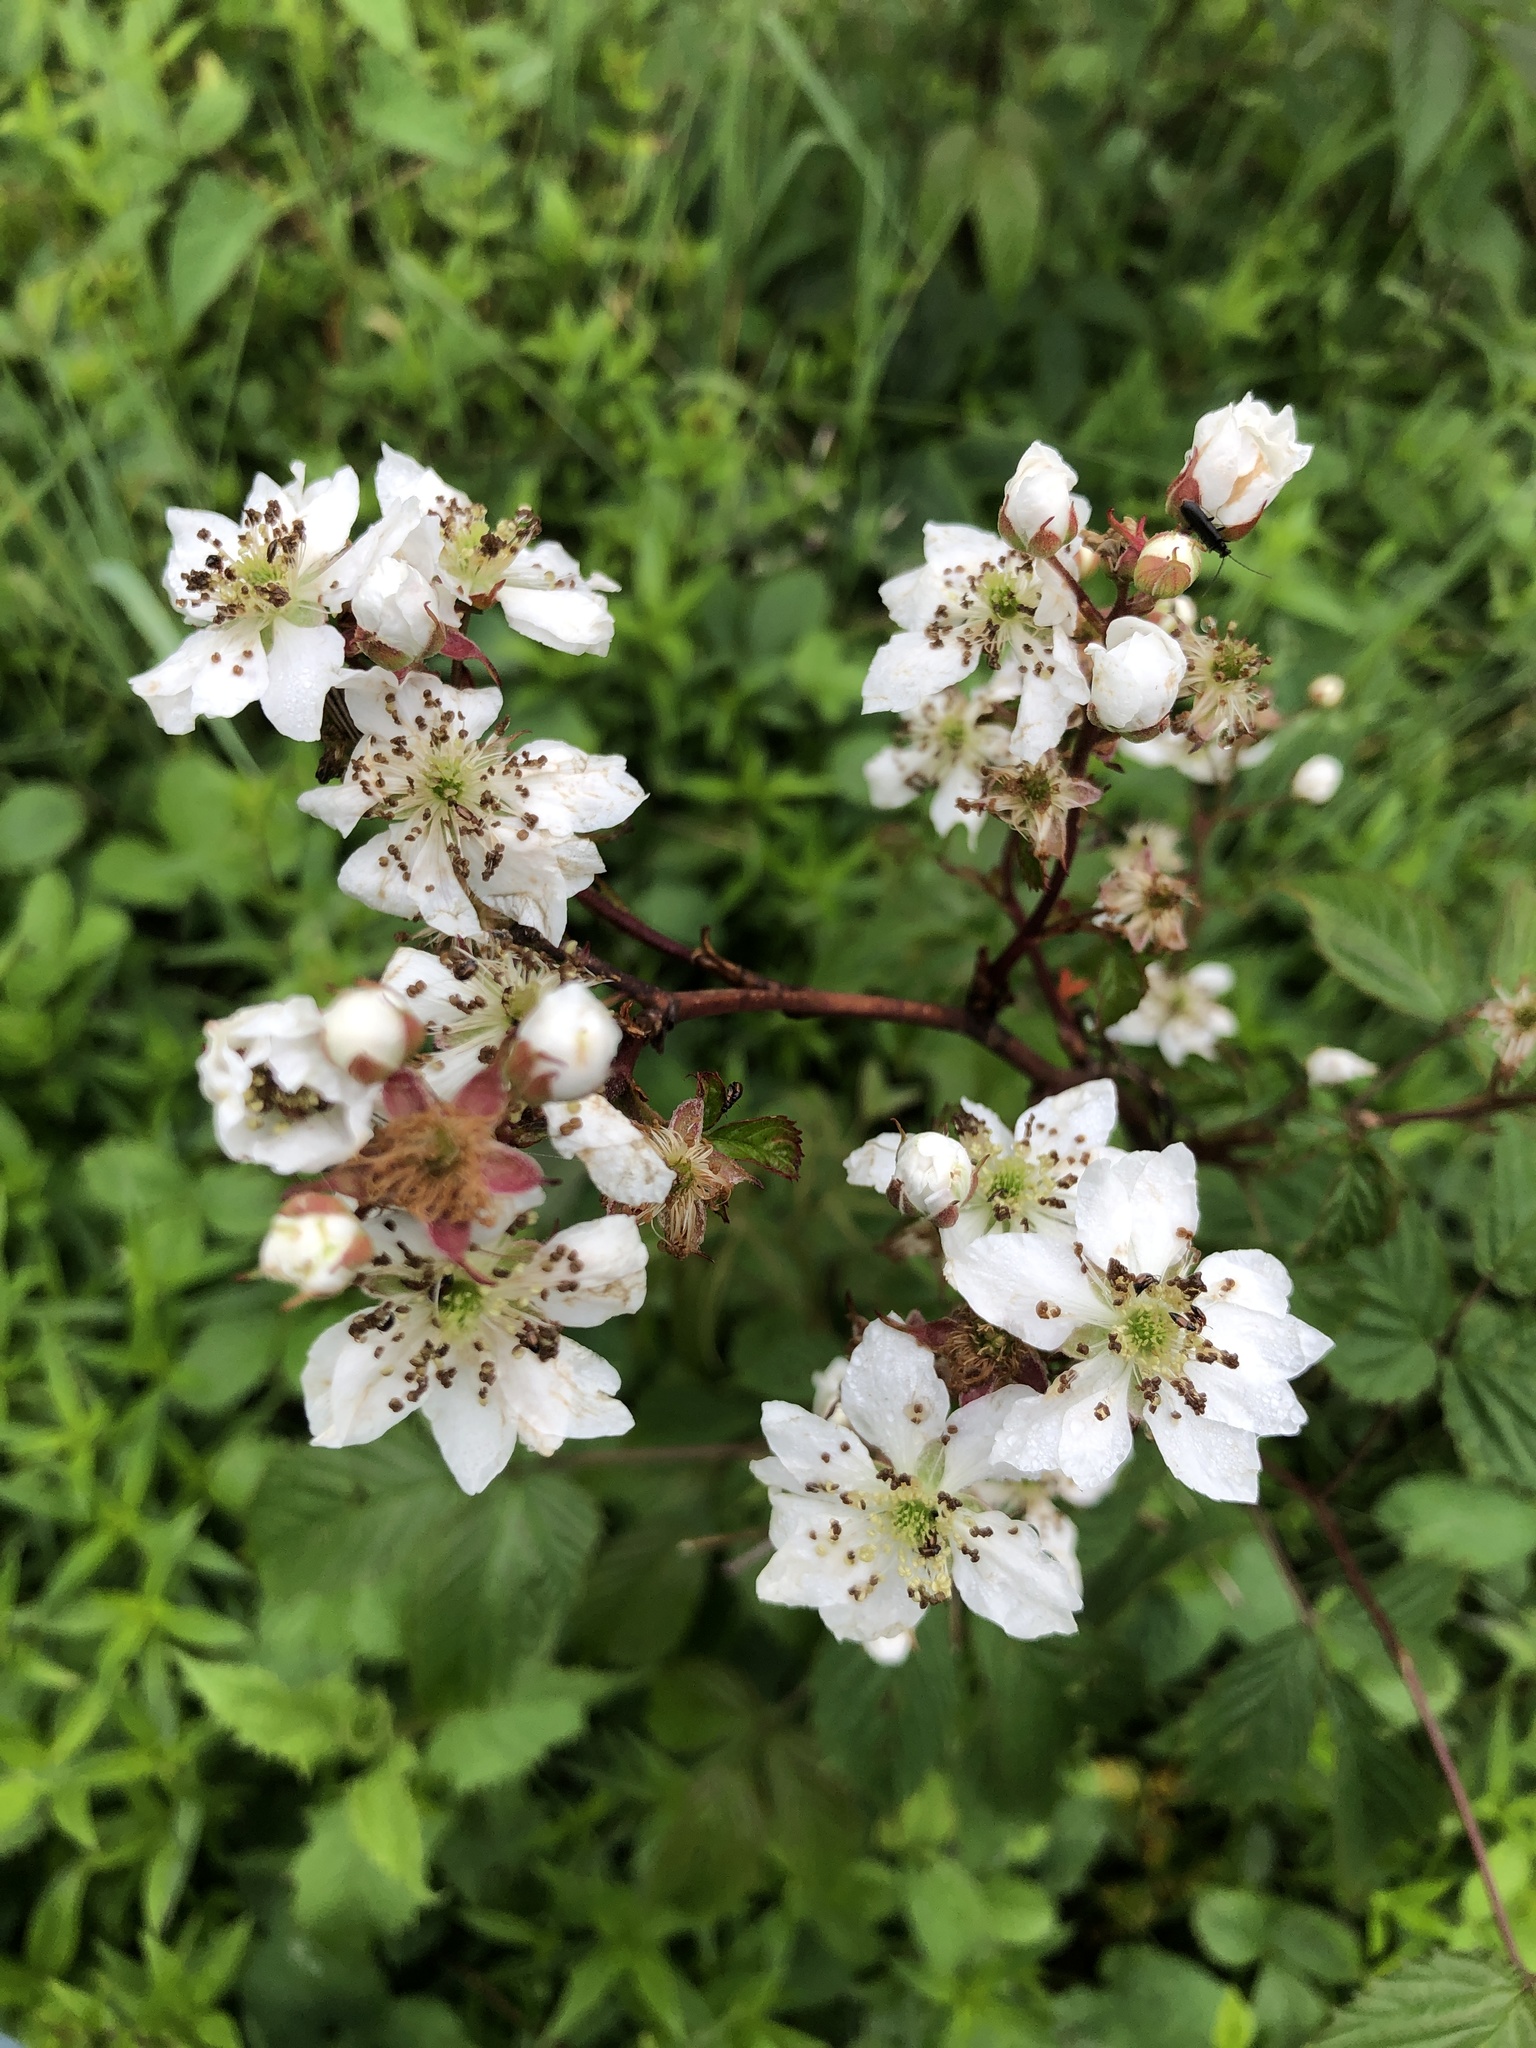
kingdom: Plantae
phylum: Tracheophyta
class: Magnoliopsida
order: Rosales
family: Rosaceae
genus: Rubus
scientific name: Rubus allegheniensis
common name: Allegheny blackberry
